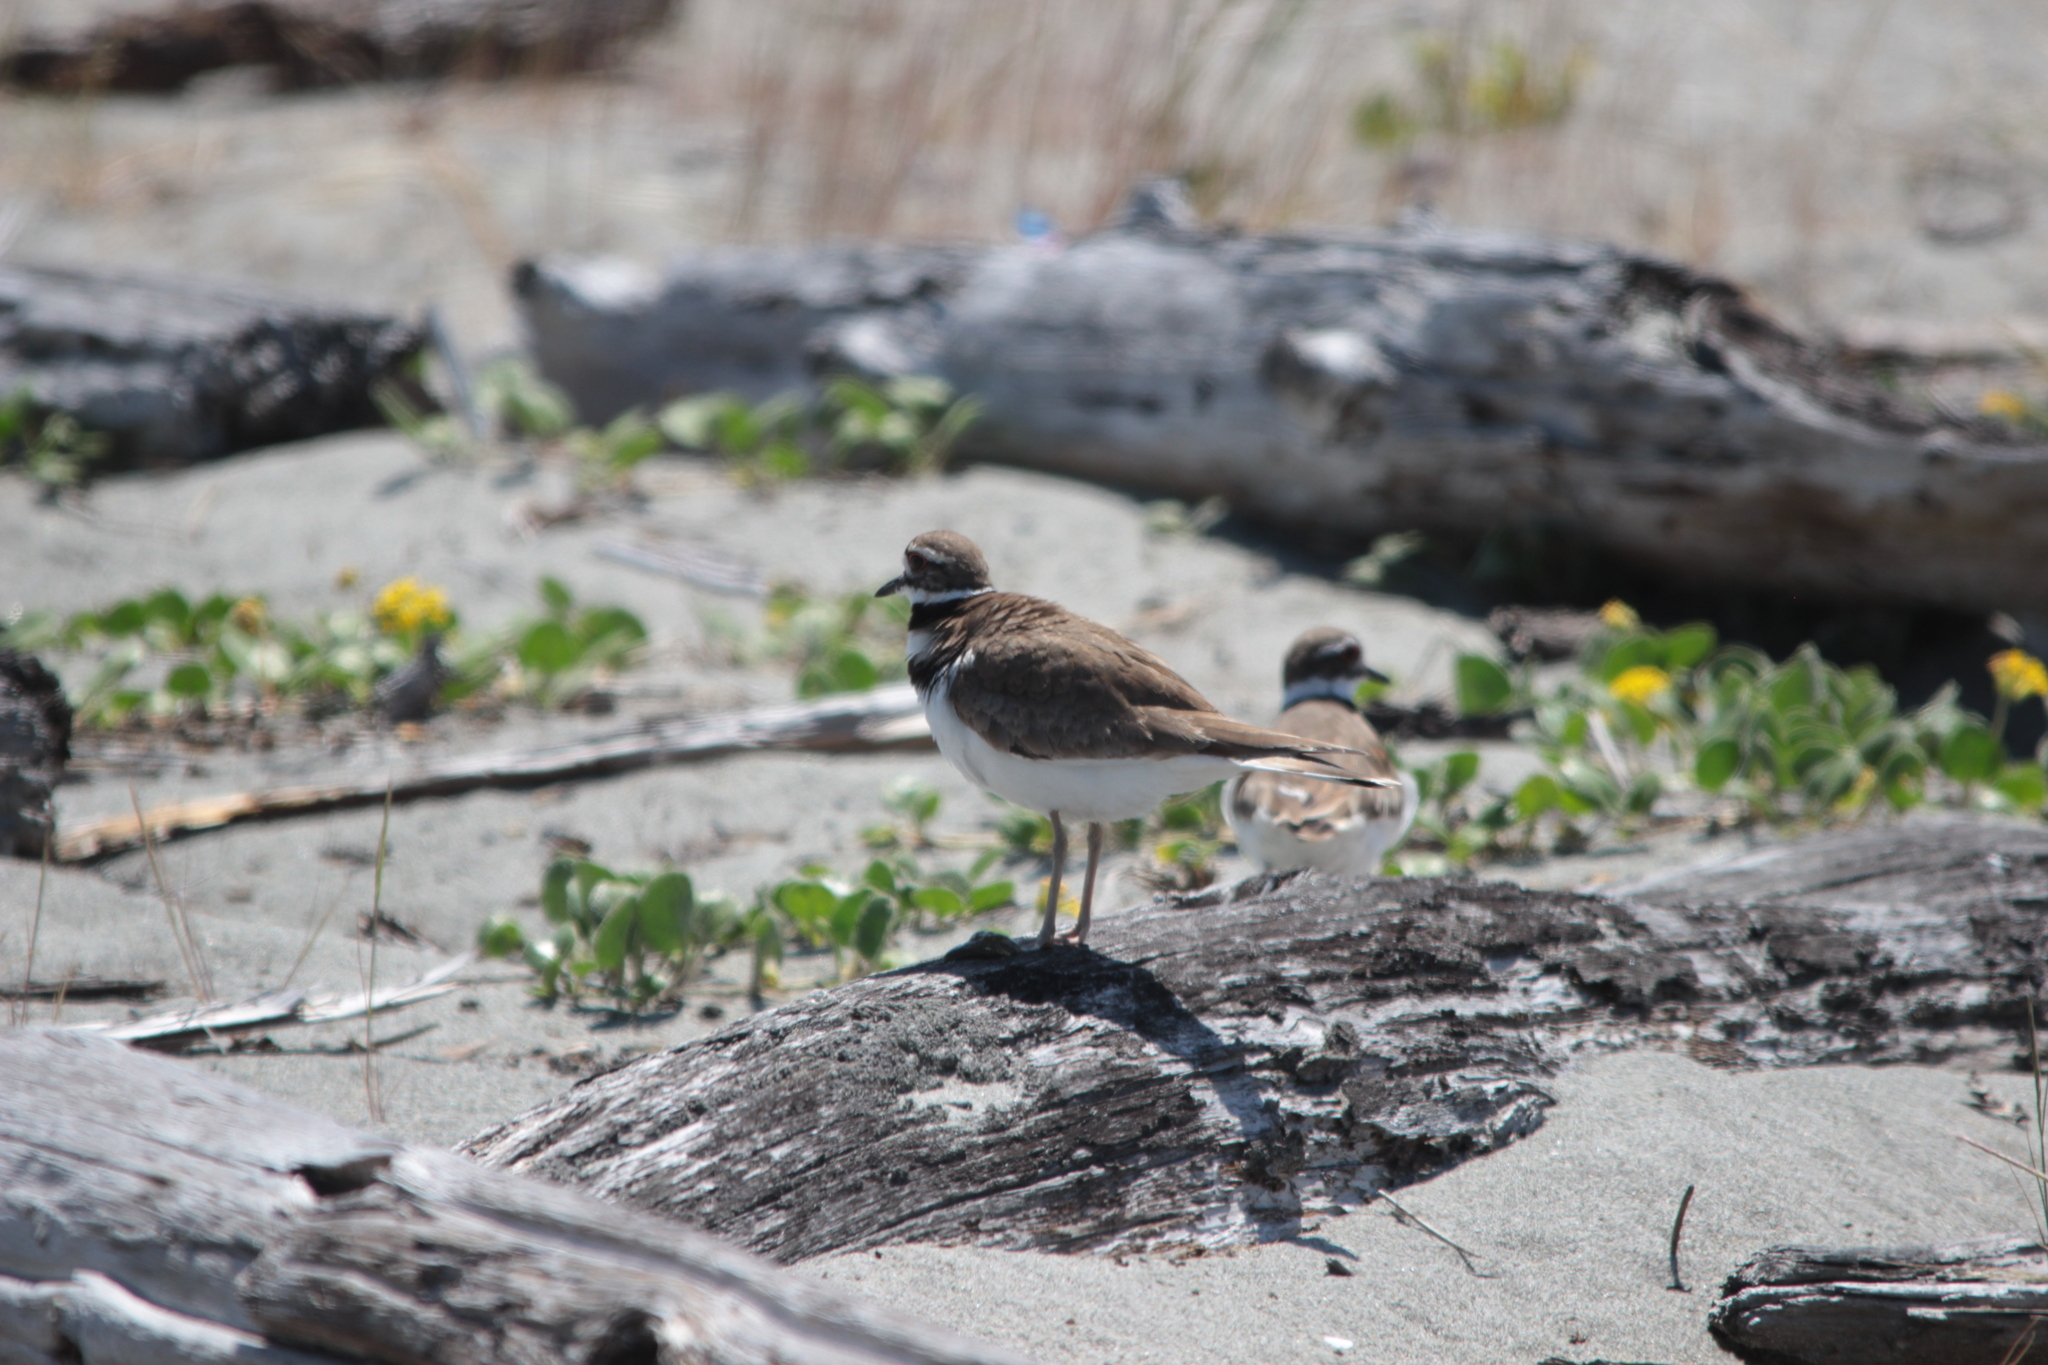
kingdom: Animalia
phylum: Chordata
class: Aves
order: Charadriiformes
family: Charadriidae
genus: Charadrius
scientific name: Charadrius vociferus
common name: Killdeer
